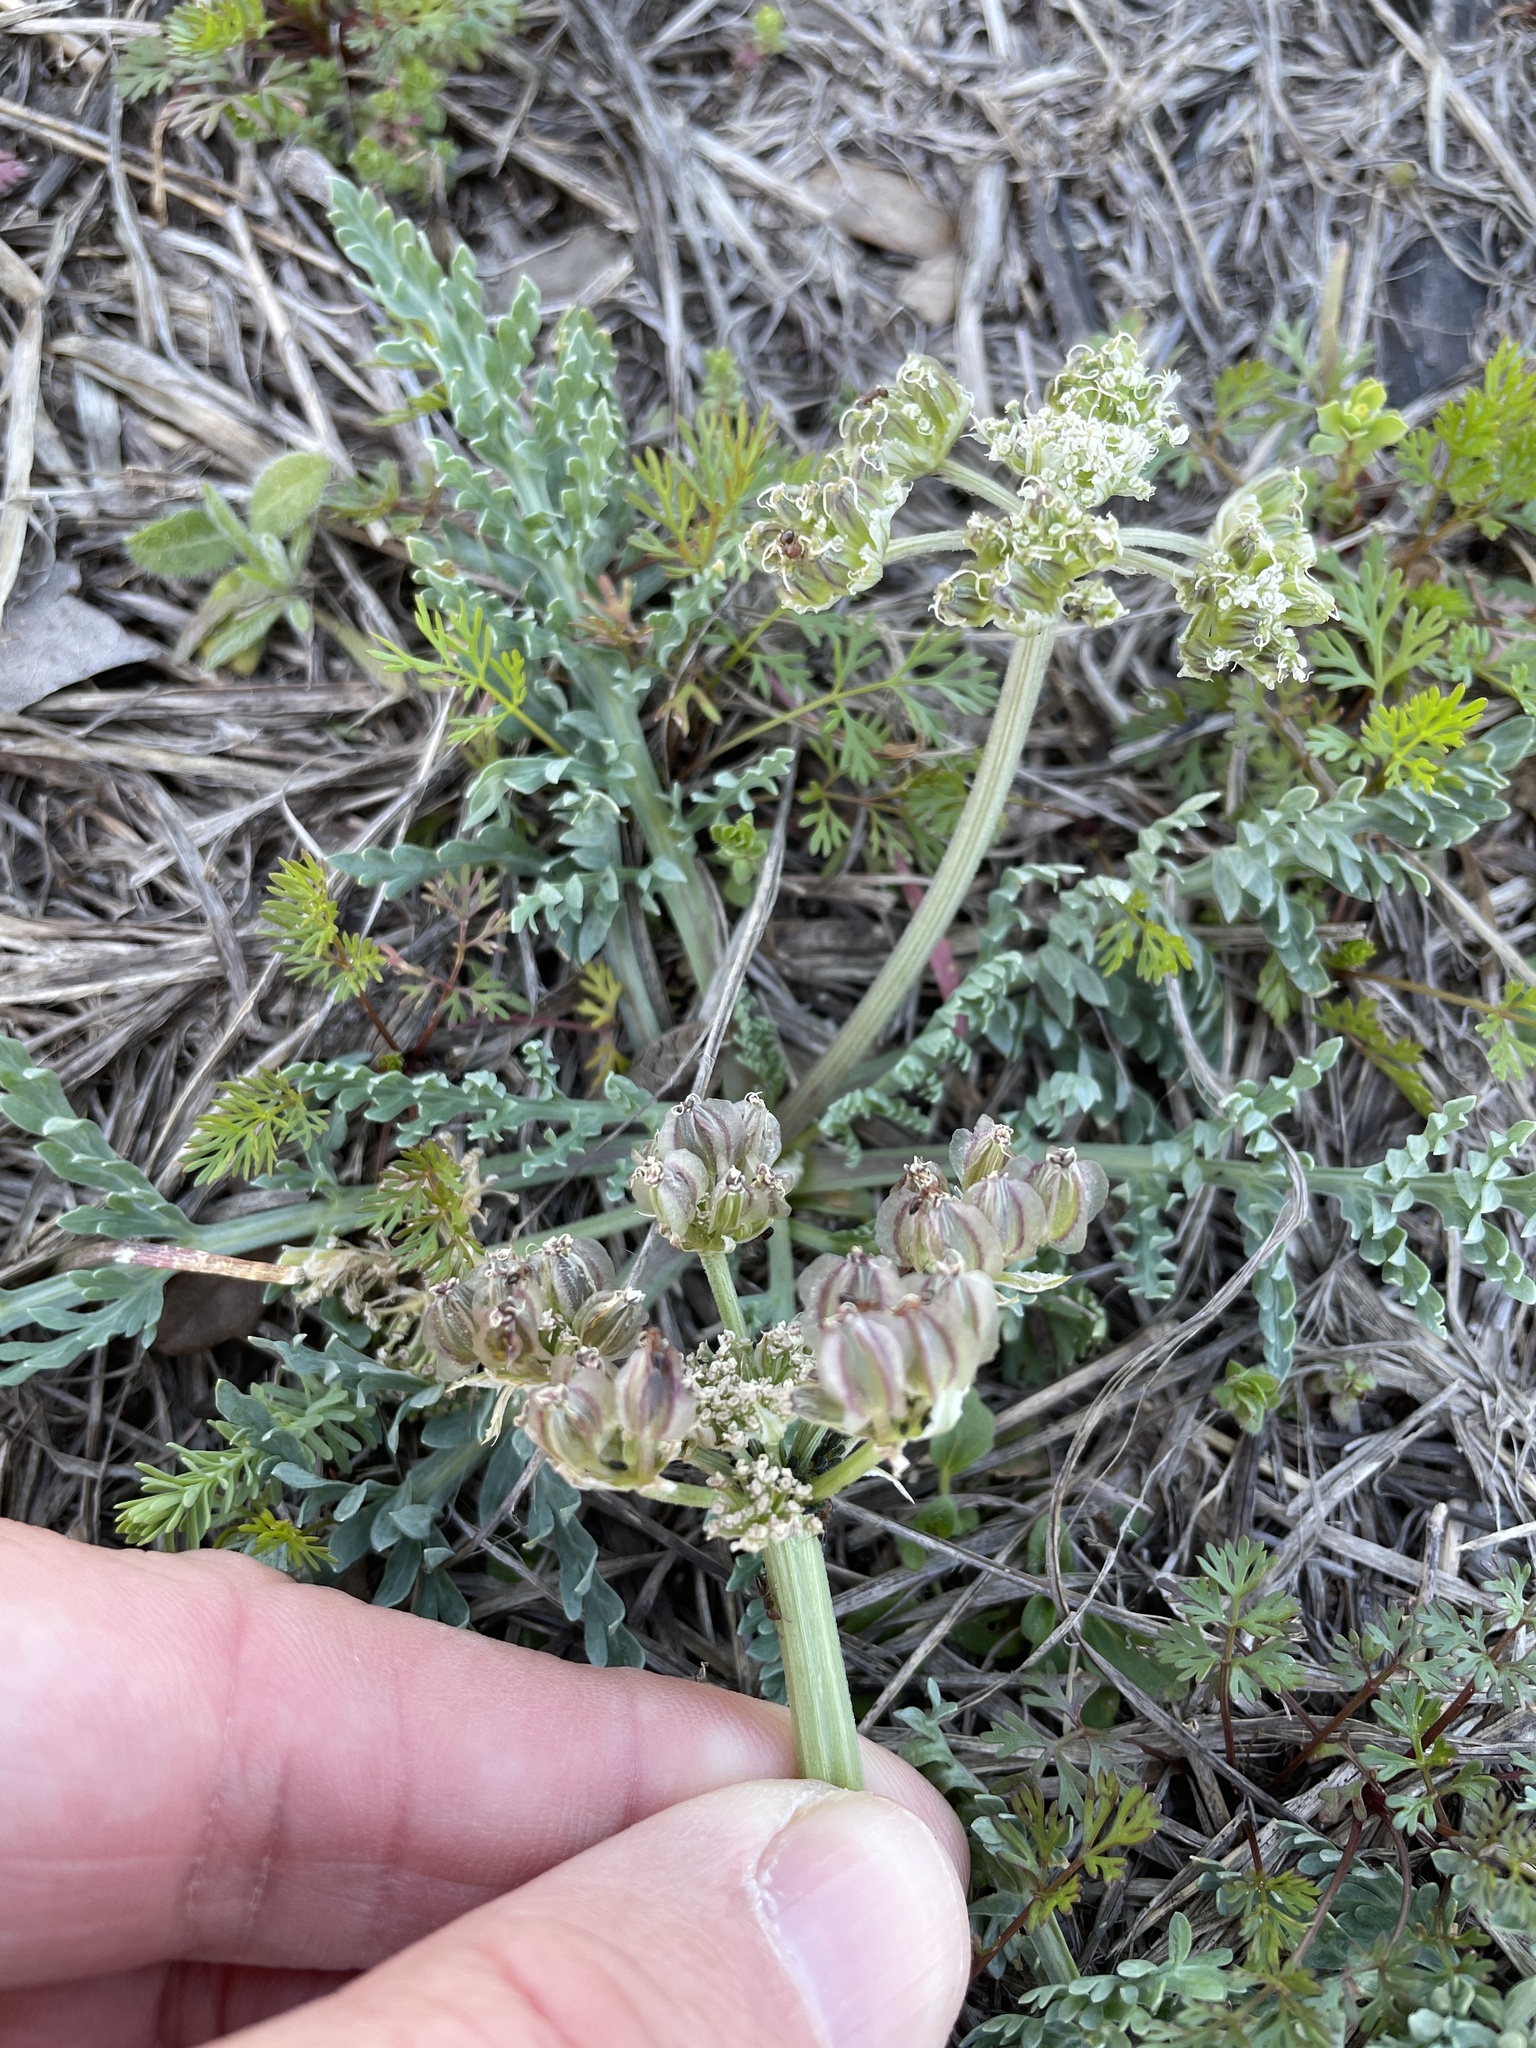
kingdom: Plantae
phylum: Tracheophyta
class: Magnoliopsida
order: Apiales
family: Apiaceae
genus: Vesper
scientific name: Vesper macrorhizus
